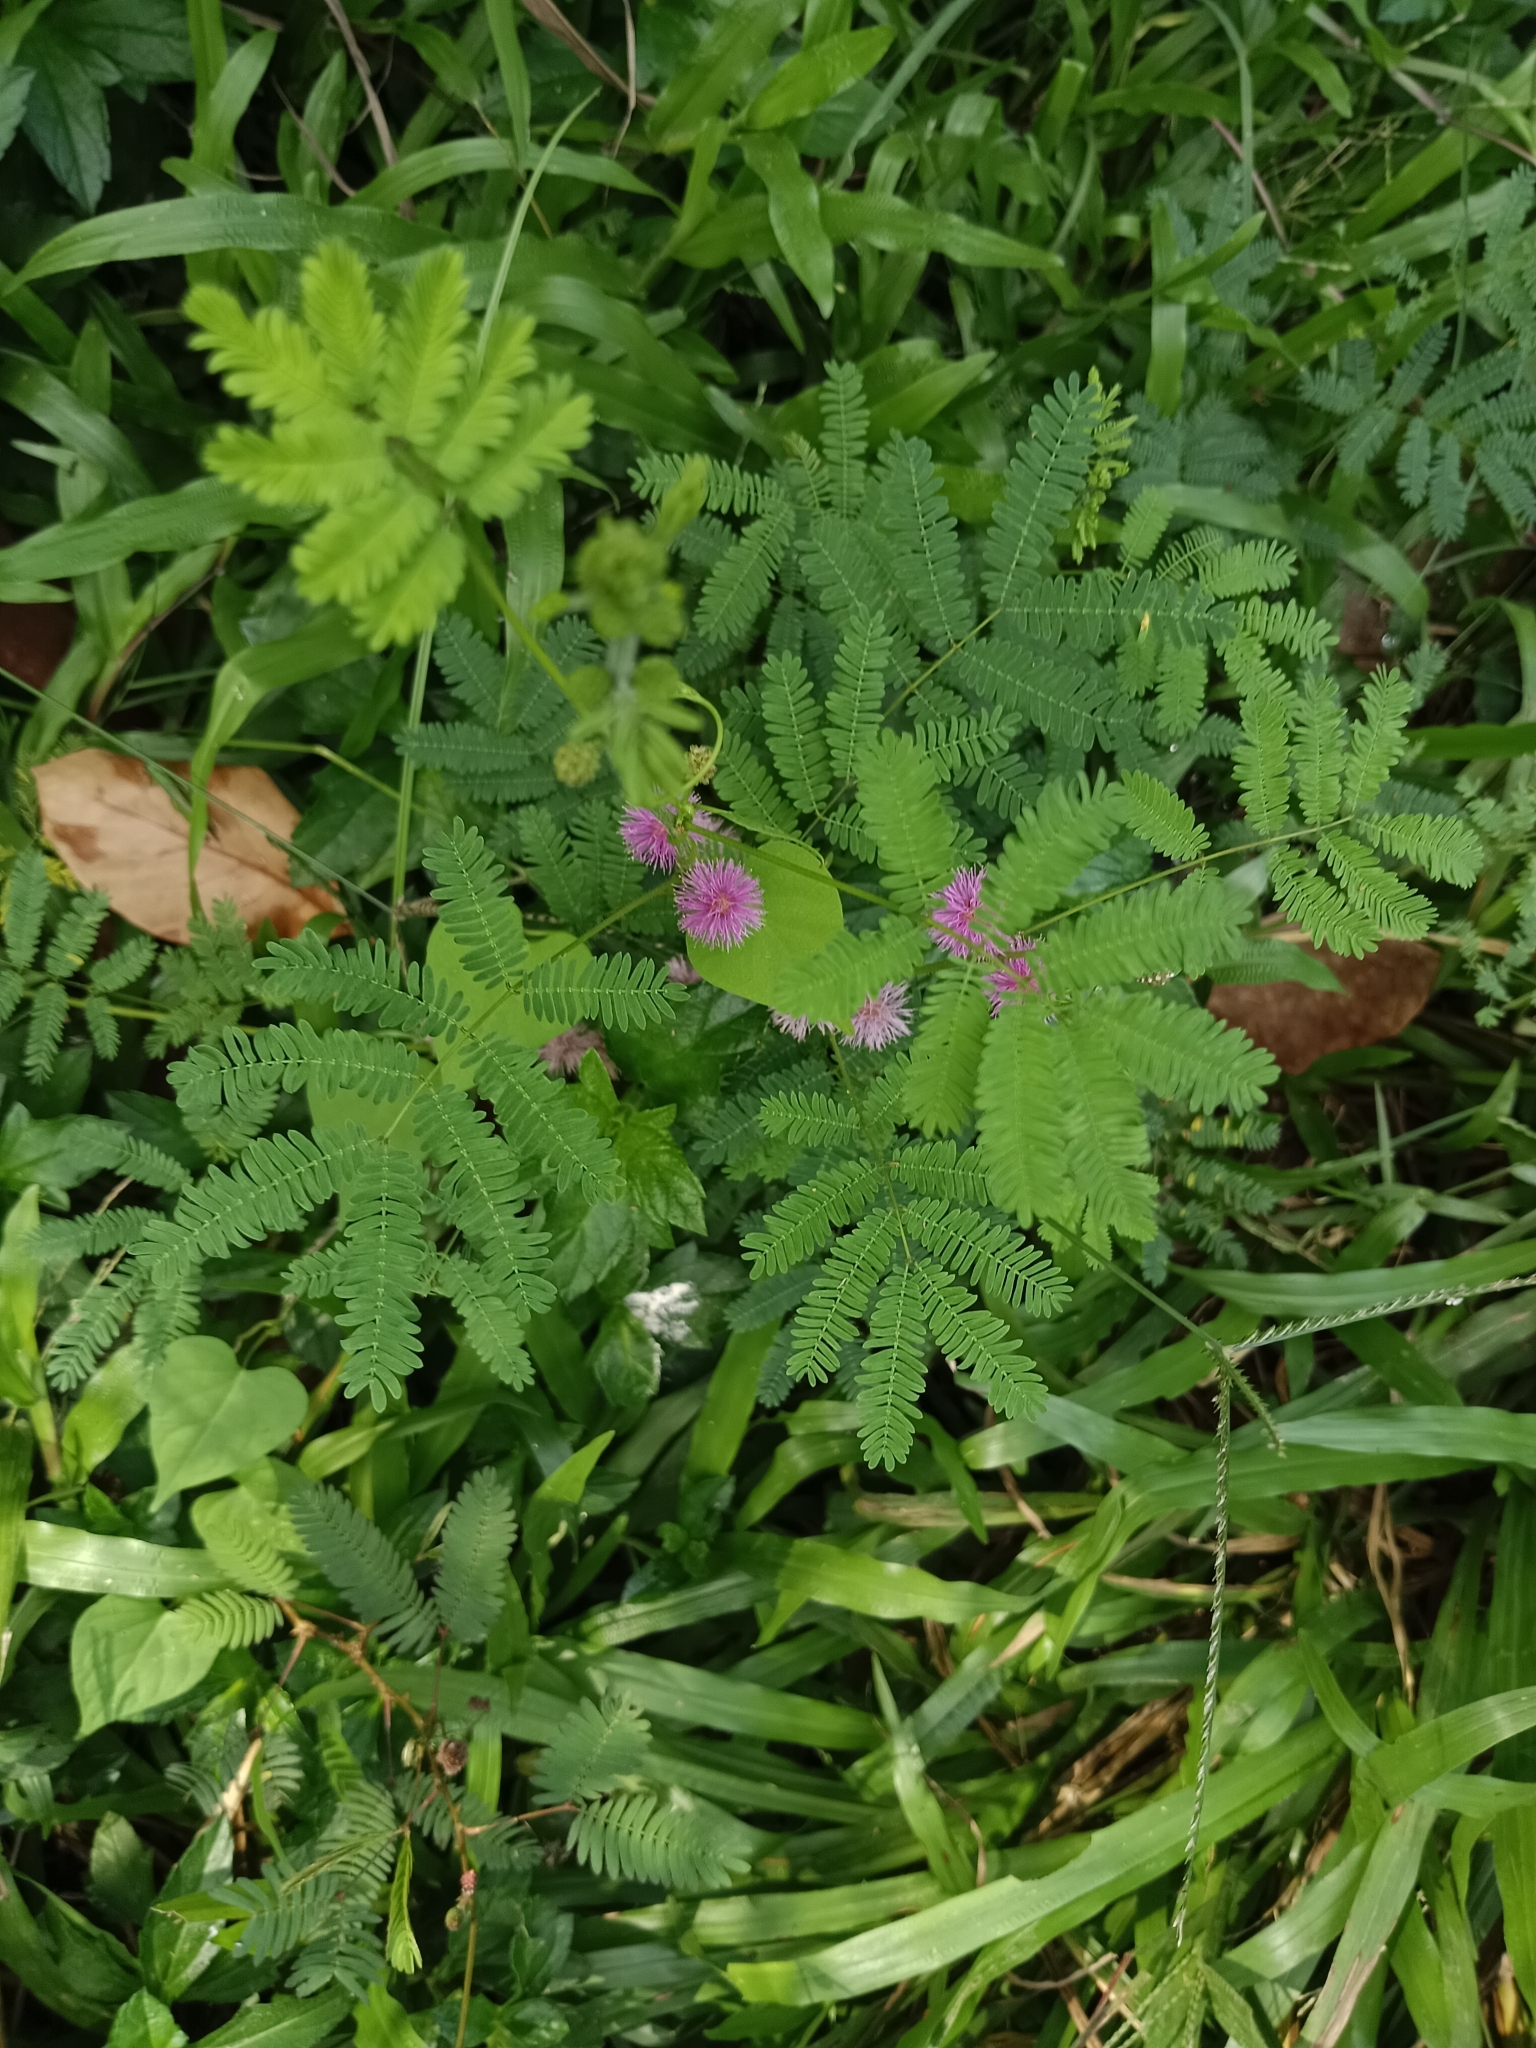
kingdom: Plantae
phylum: Tracheophyta
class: Magnoliopsida
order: Fabales
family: Fabaceae
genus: Mimosa
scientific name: Mimosa diplotricha
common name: Giant sensitive-plant
